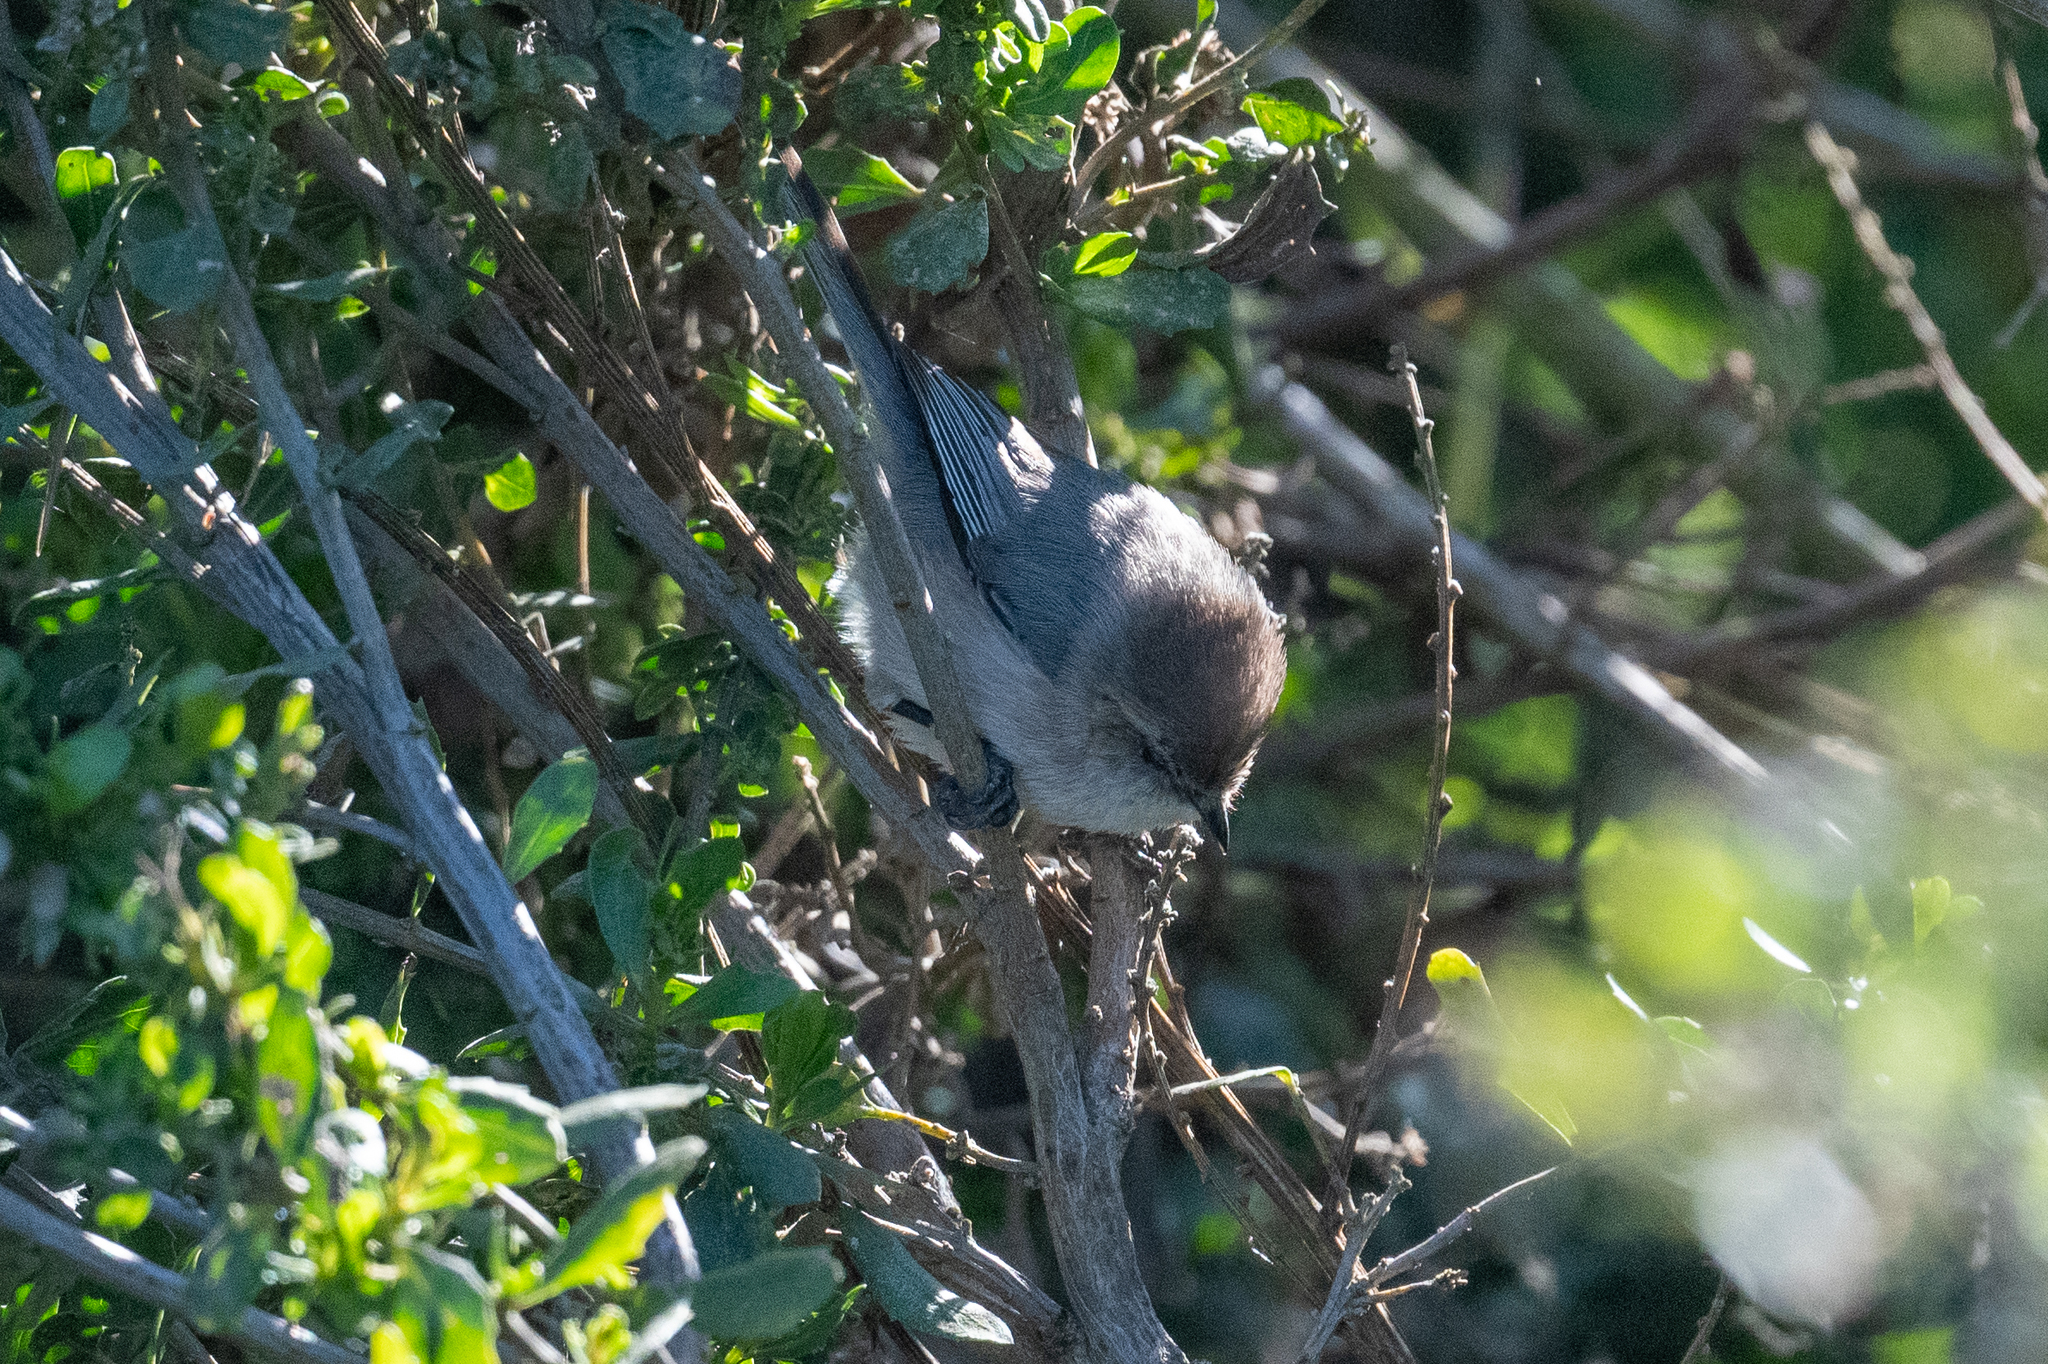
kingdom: Animalia
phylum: Chordata
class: Aves
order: Passeriformes
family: Aegithalidae
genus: Psaltriparus
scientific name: Psaltriparus minimus
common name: American bushtit
